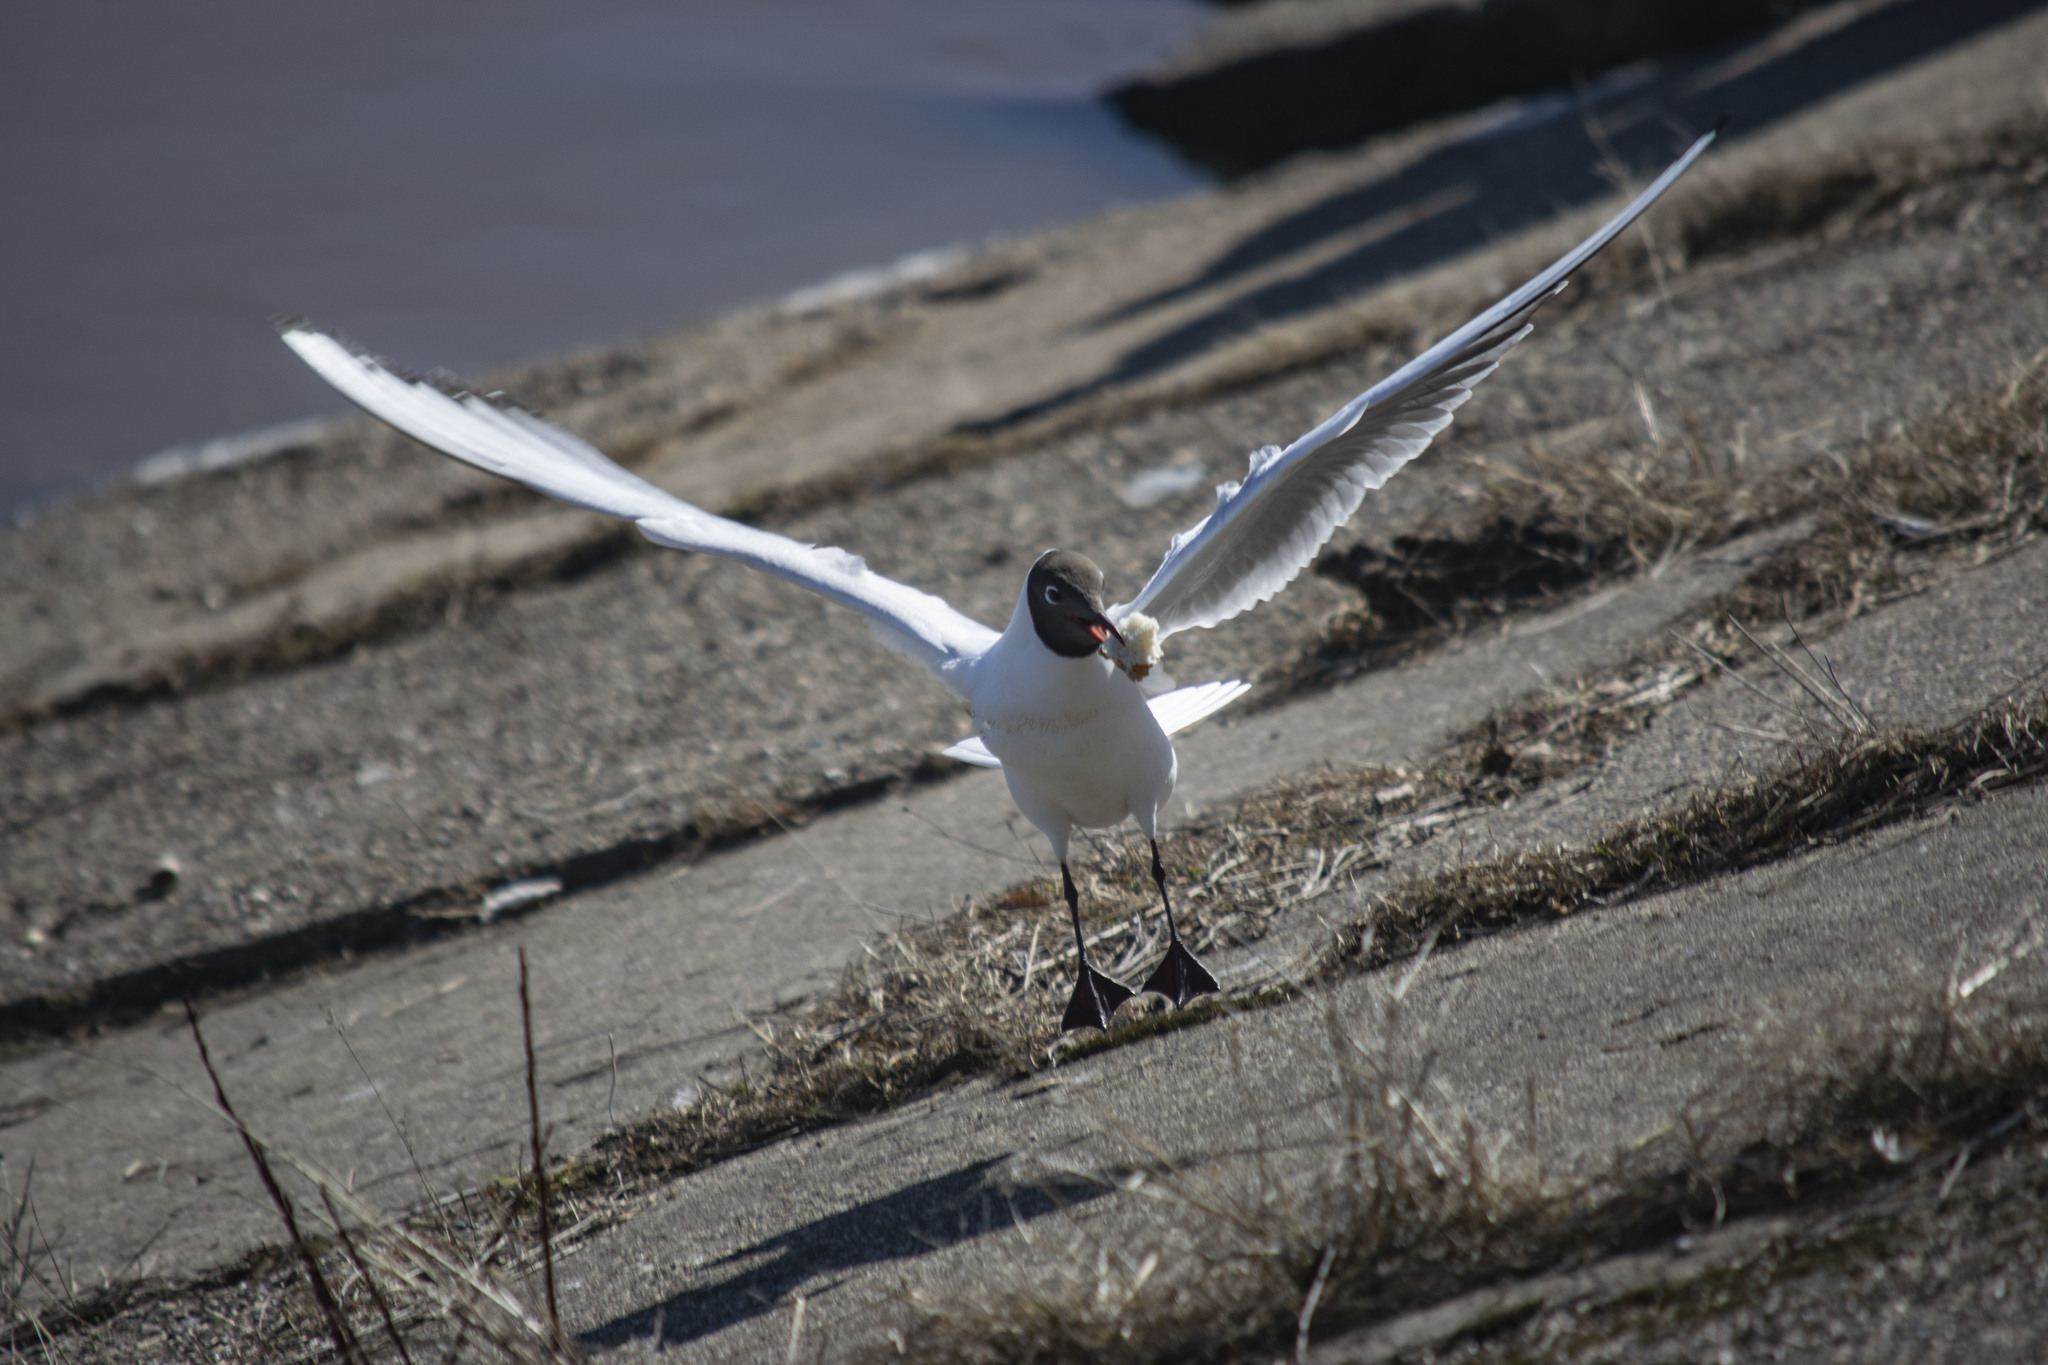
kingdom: Animalia
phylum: Chordata
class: Aves
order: Charadriiformes
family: Laridae
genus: Chroicocephalus
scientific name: Chroicocephalus ridibundus
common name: Black-headed gull
